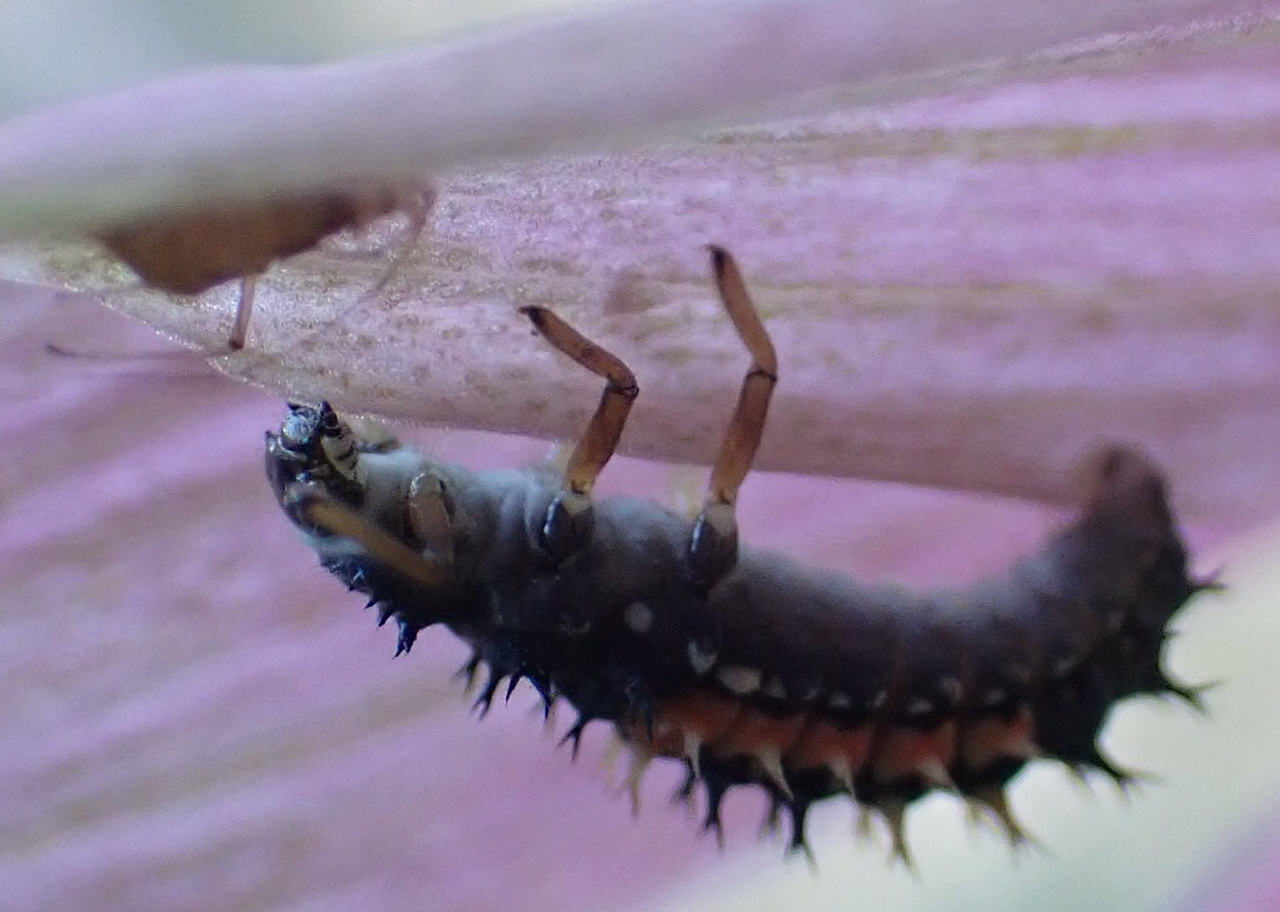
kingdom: Animalia
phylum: Arthropoda
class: Insecta
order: Coleoptera
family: Coccinellidae
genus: Harmonia
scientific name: Harmonia axyridis
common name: Harlequin ladybird
